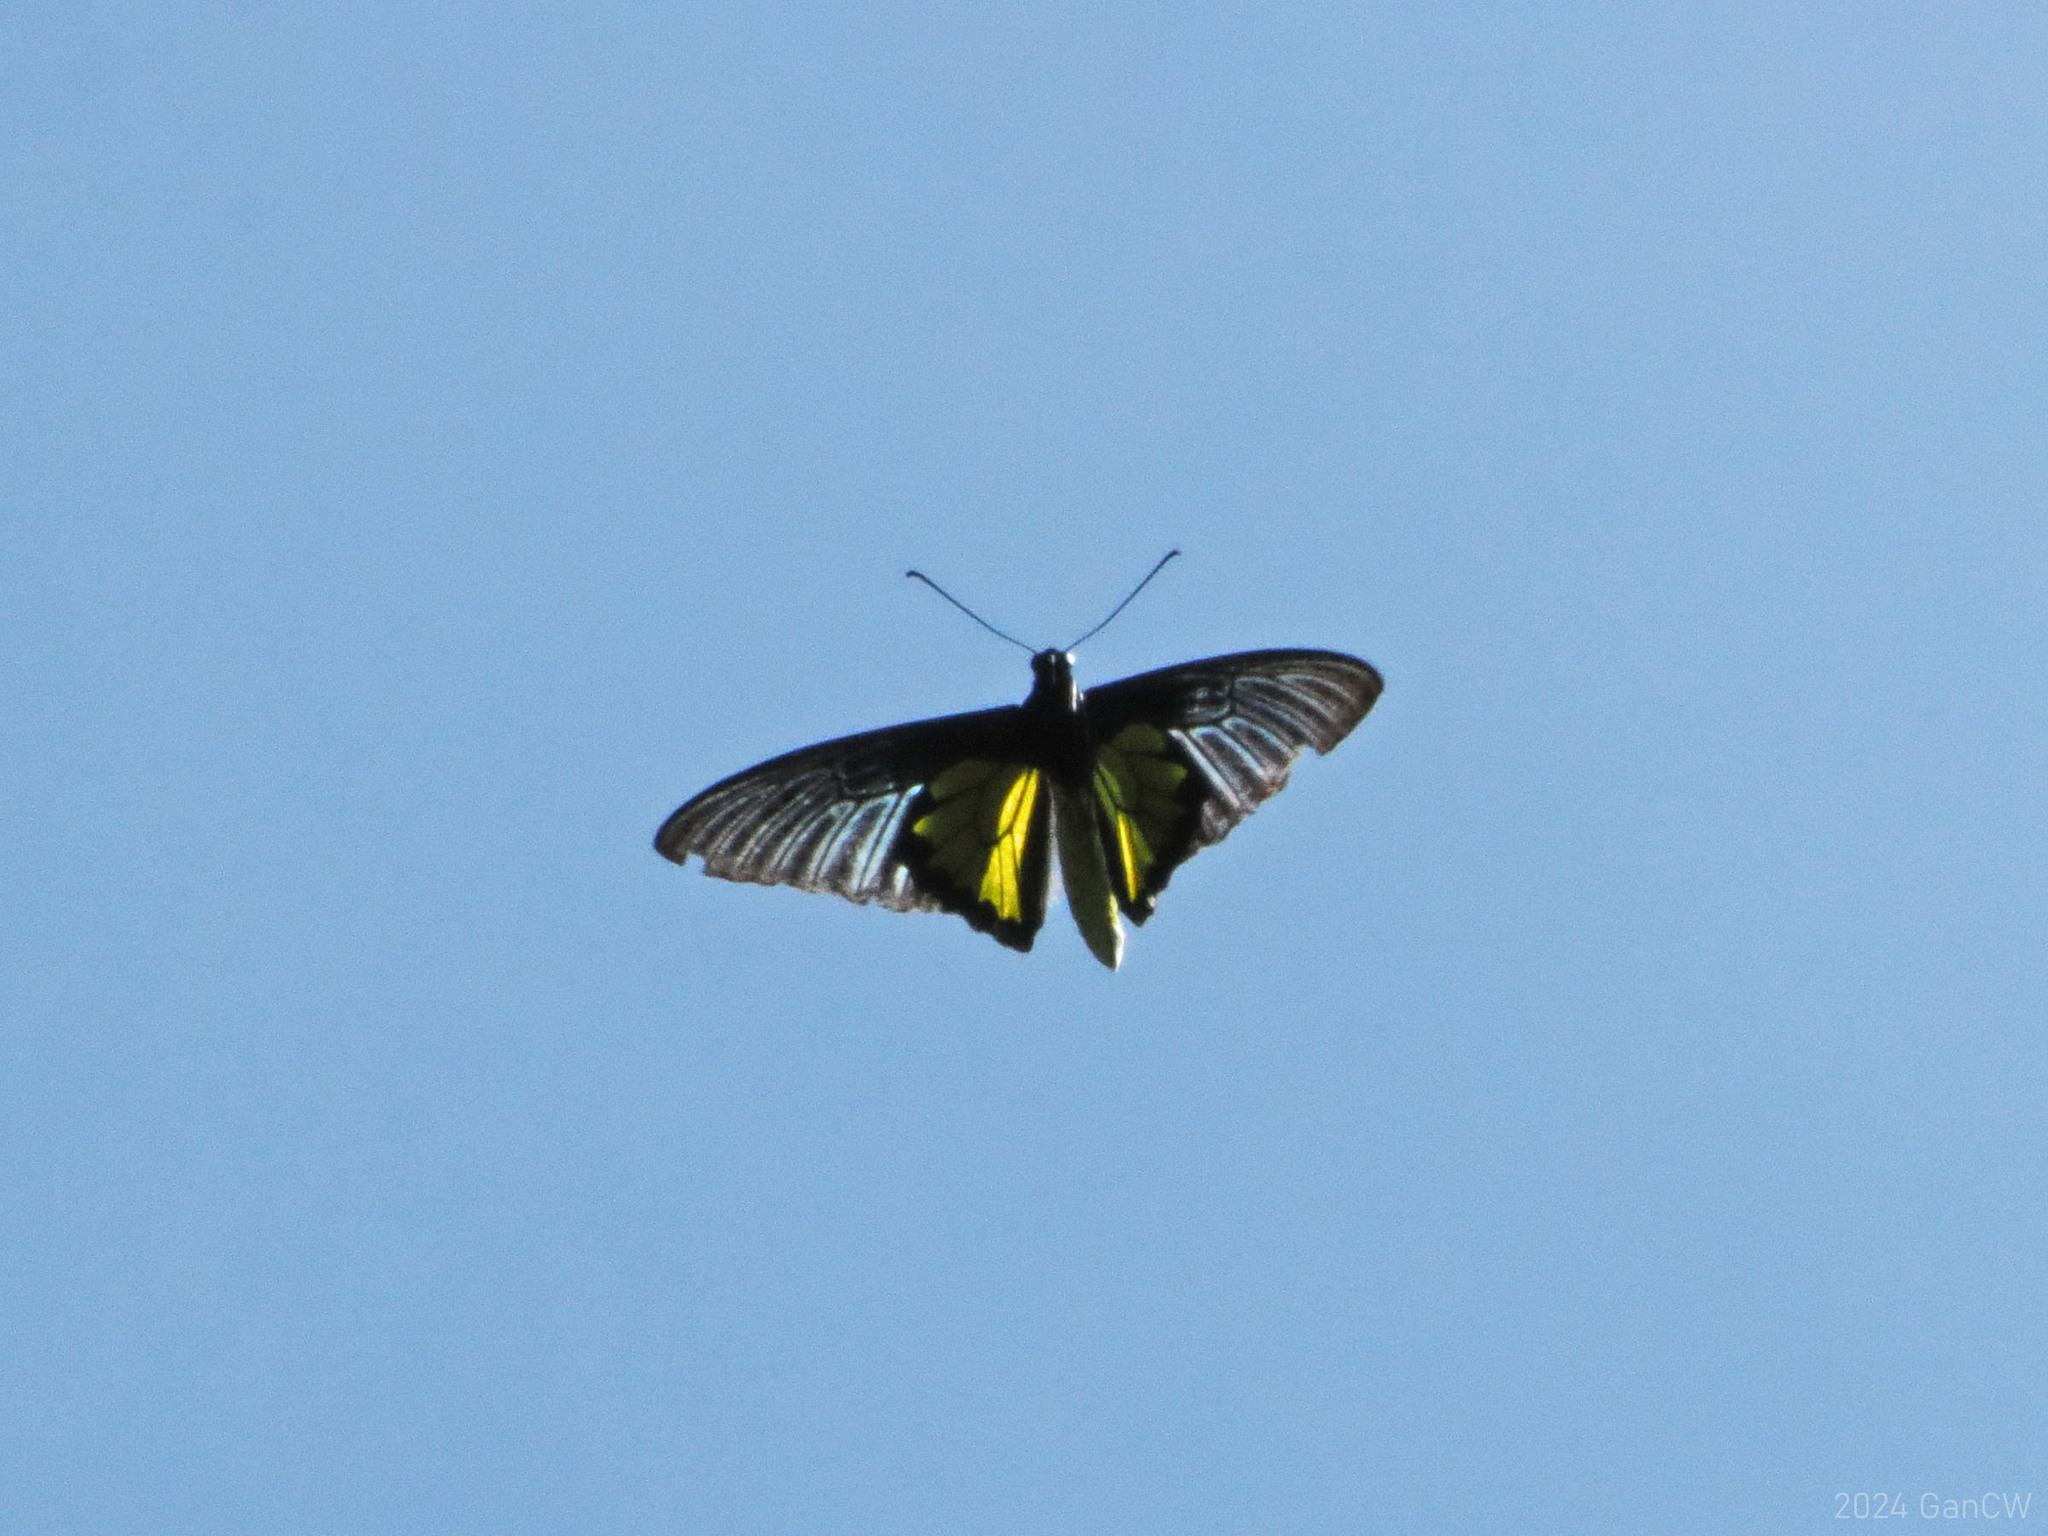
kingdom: Animalia
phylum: Arthropoda
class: Insecta
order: Lepidoptera
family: Papilionidae
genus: Troides
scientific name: Troides rhadamantus
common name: Golden birdwing
